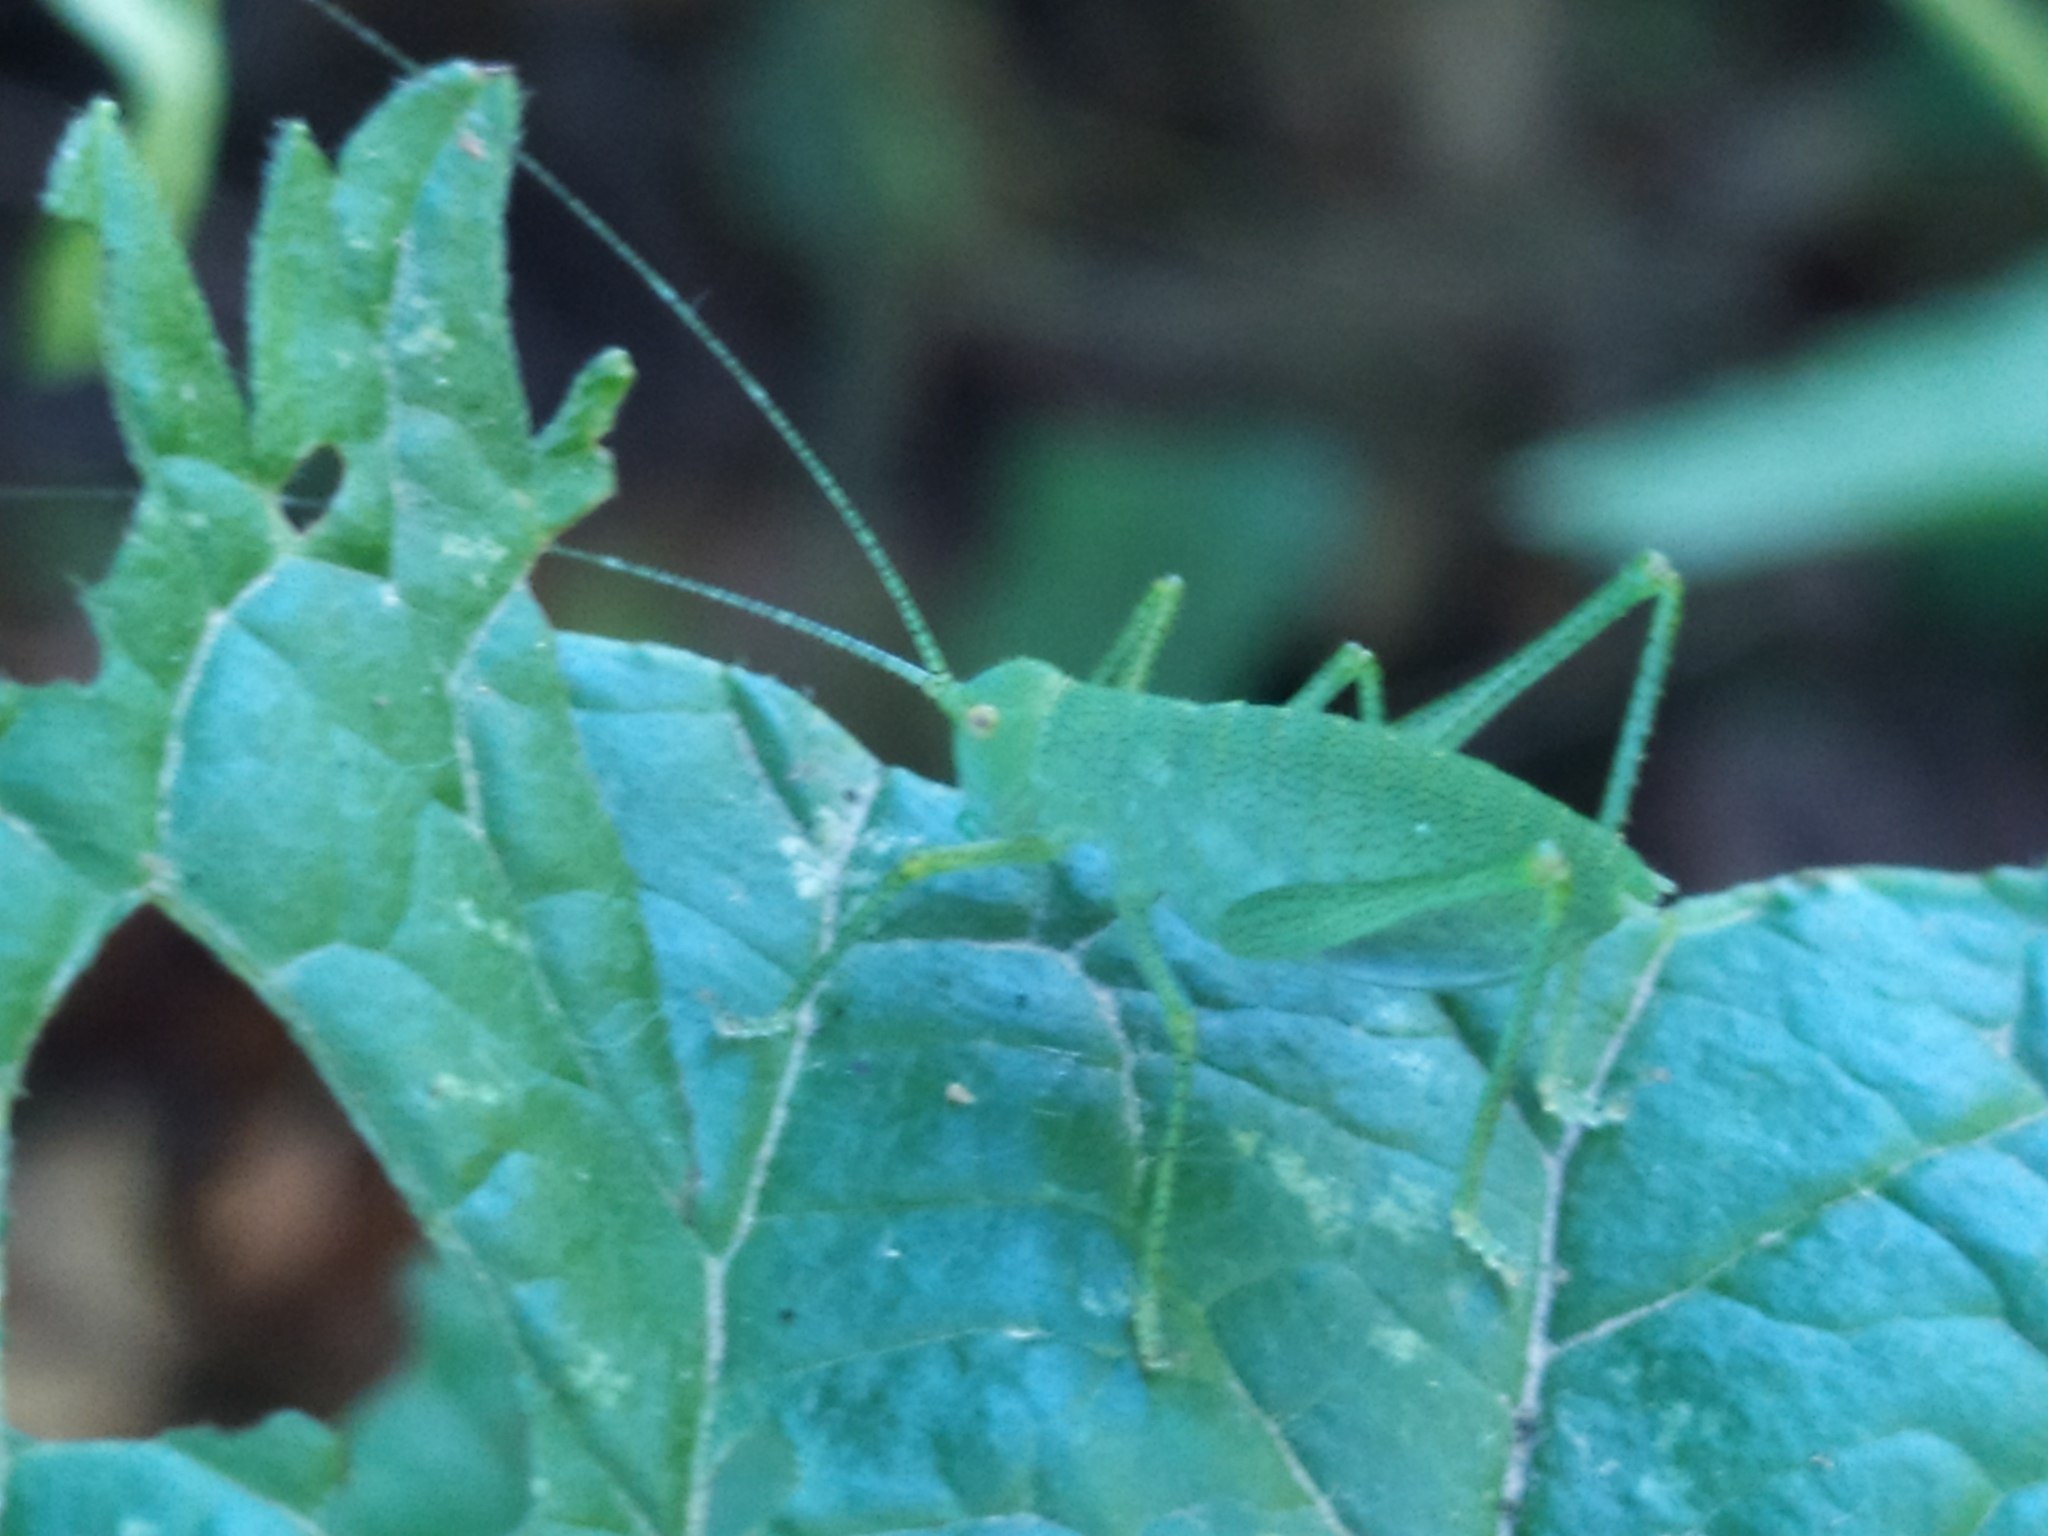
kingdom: Animalia
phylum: Arthropoda
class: Insecta
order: Orthoptera
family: Tettigoniidae
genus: Poecilimon
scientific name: Poecilimon schmidtii
